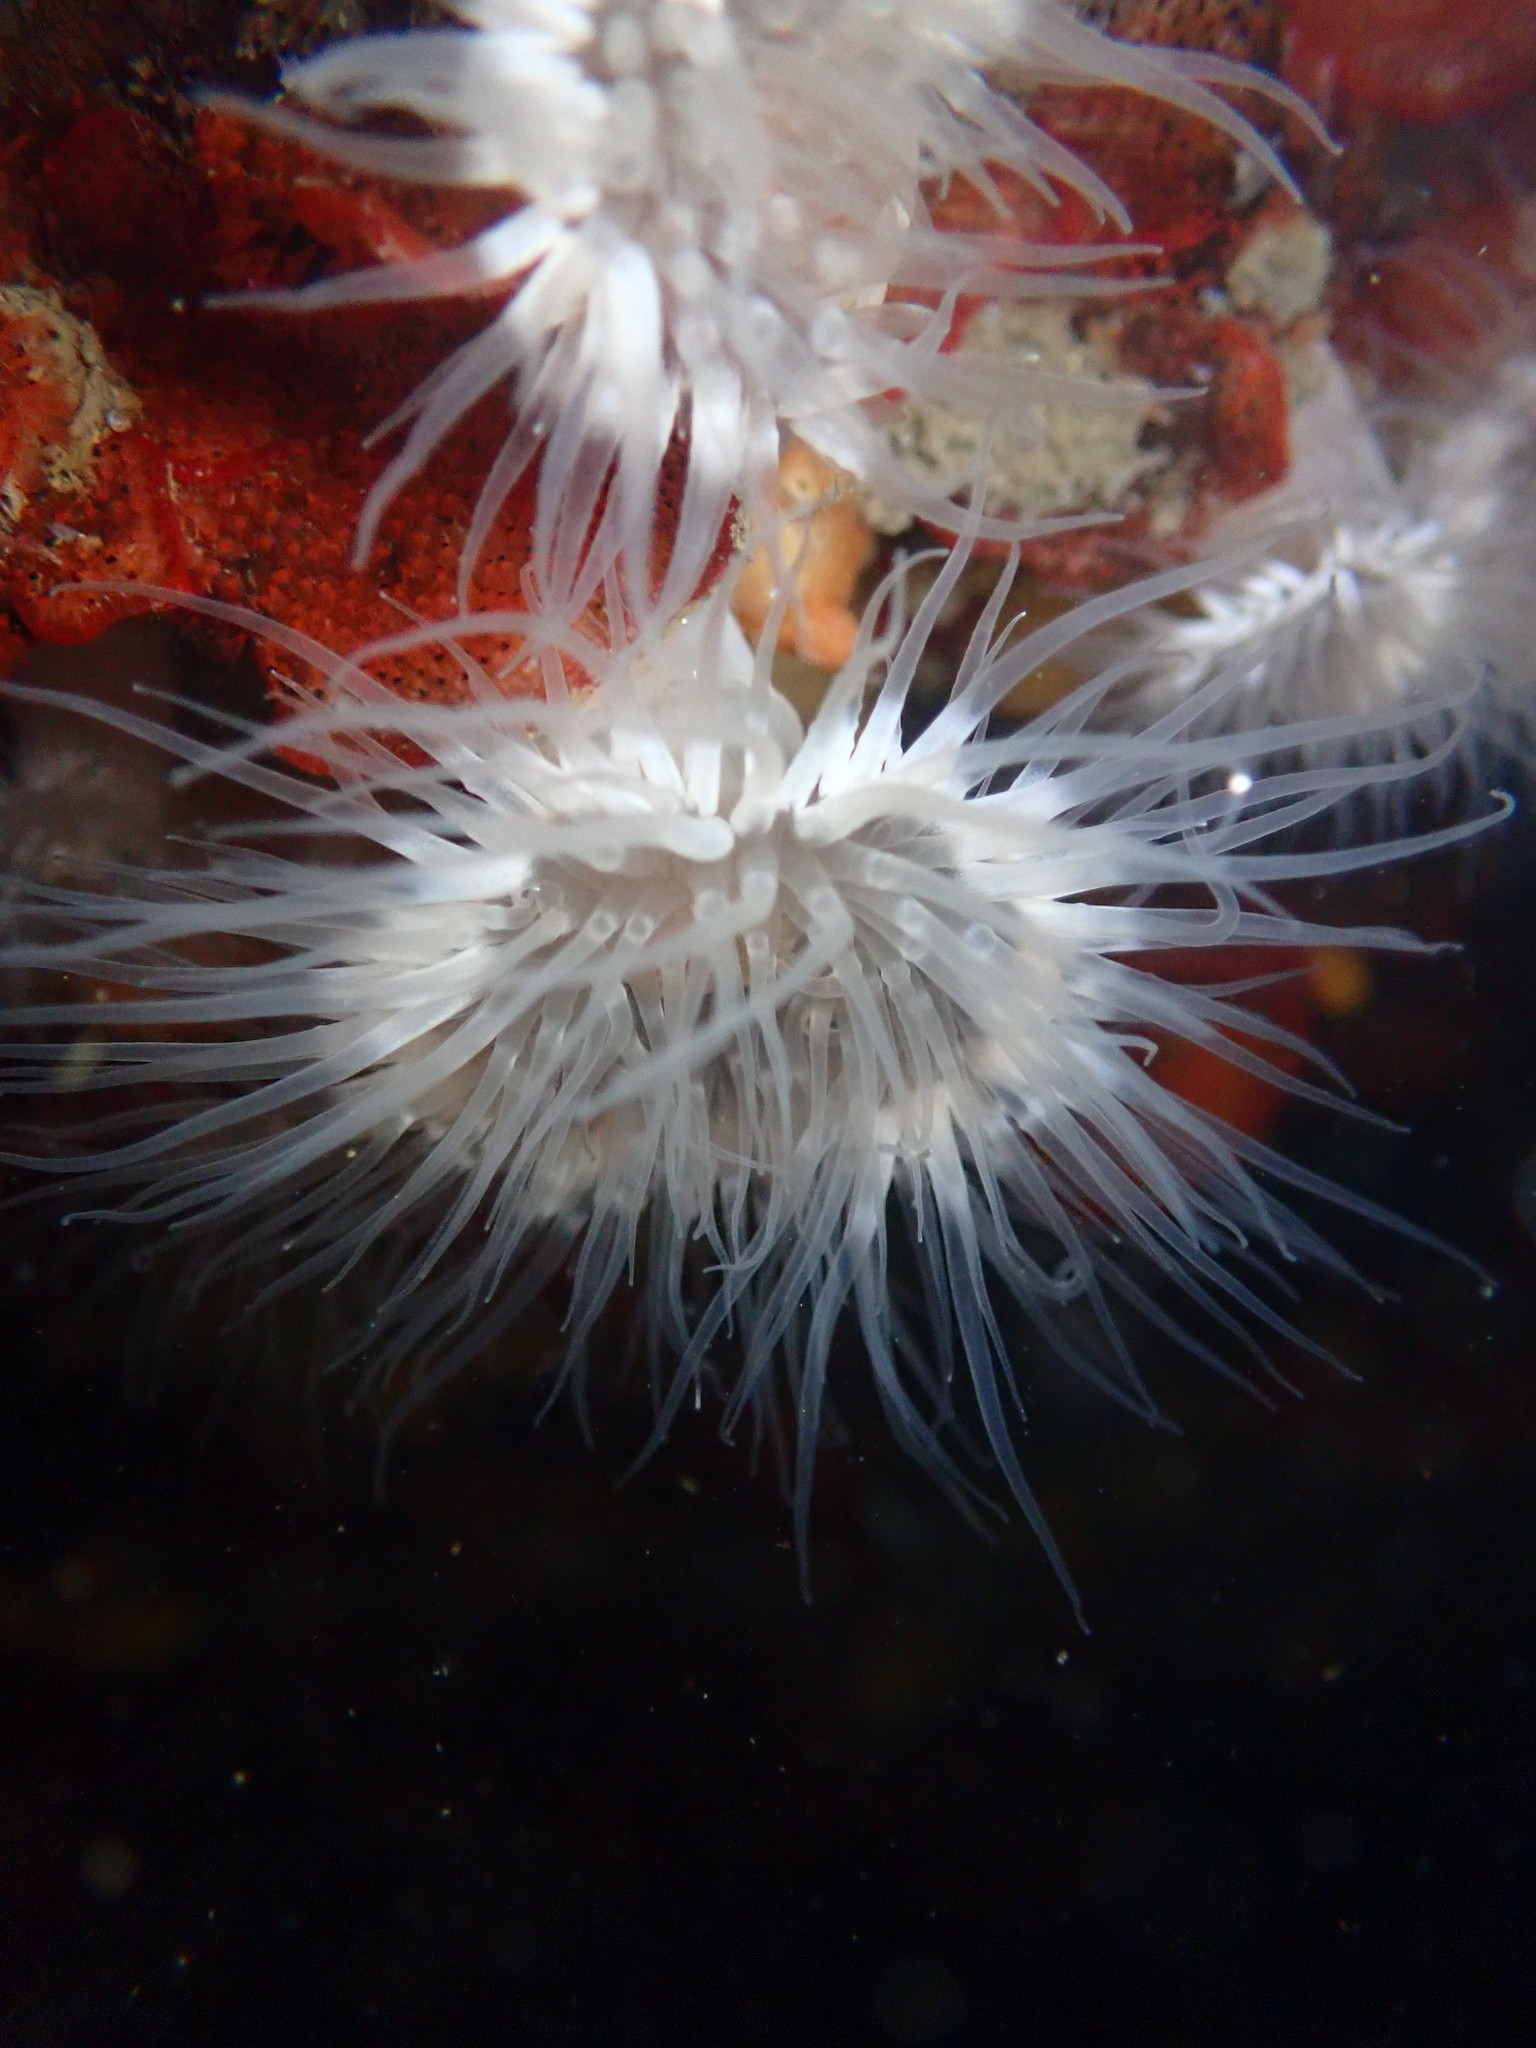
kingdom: Animalia
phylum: Cnidaria
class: Anthozoa
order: Actiniaria
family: Metridiidae
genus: Metridium
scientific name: Metridium senile
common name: Clonal plumose anemone
